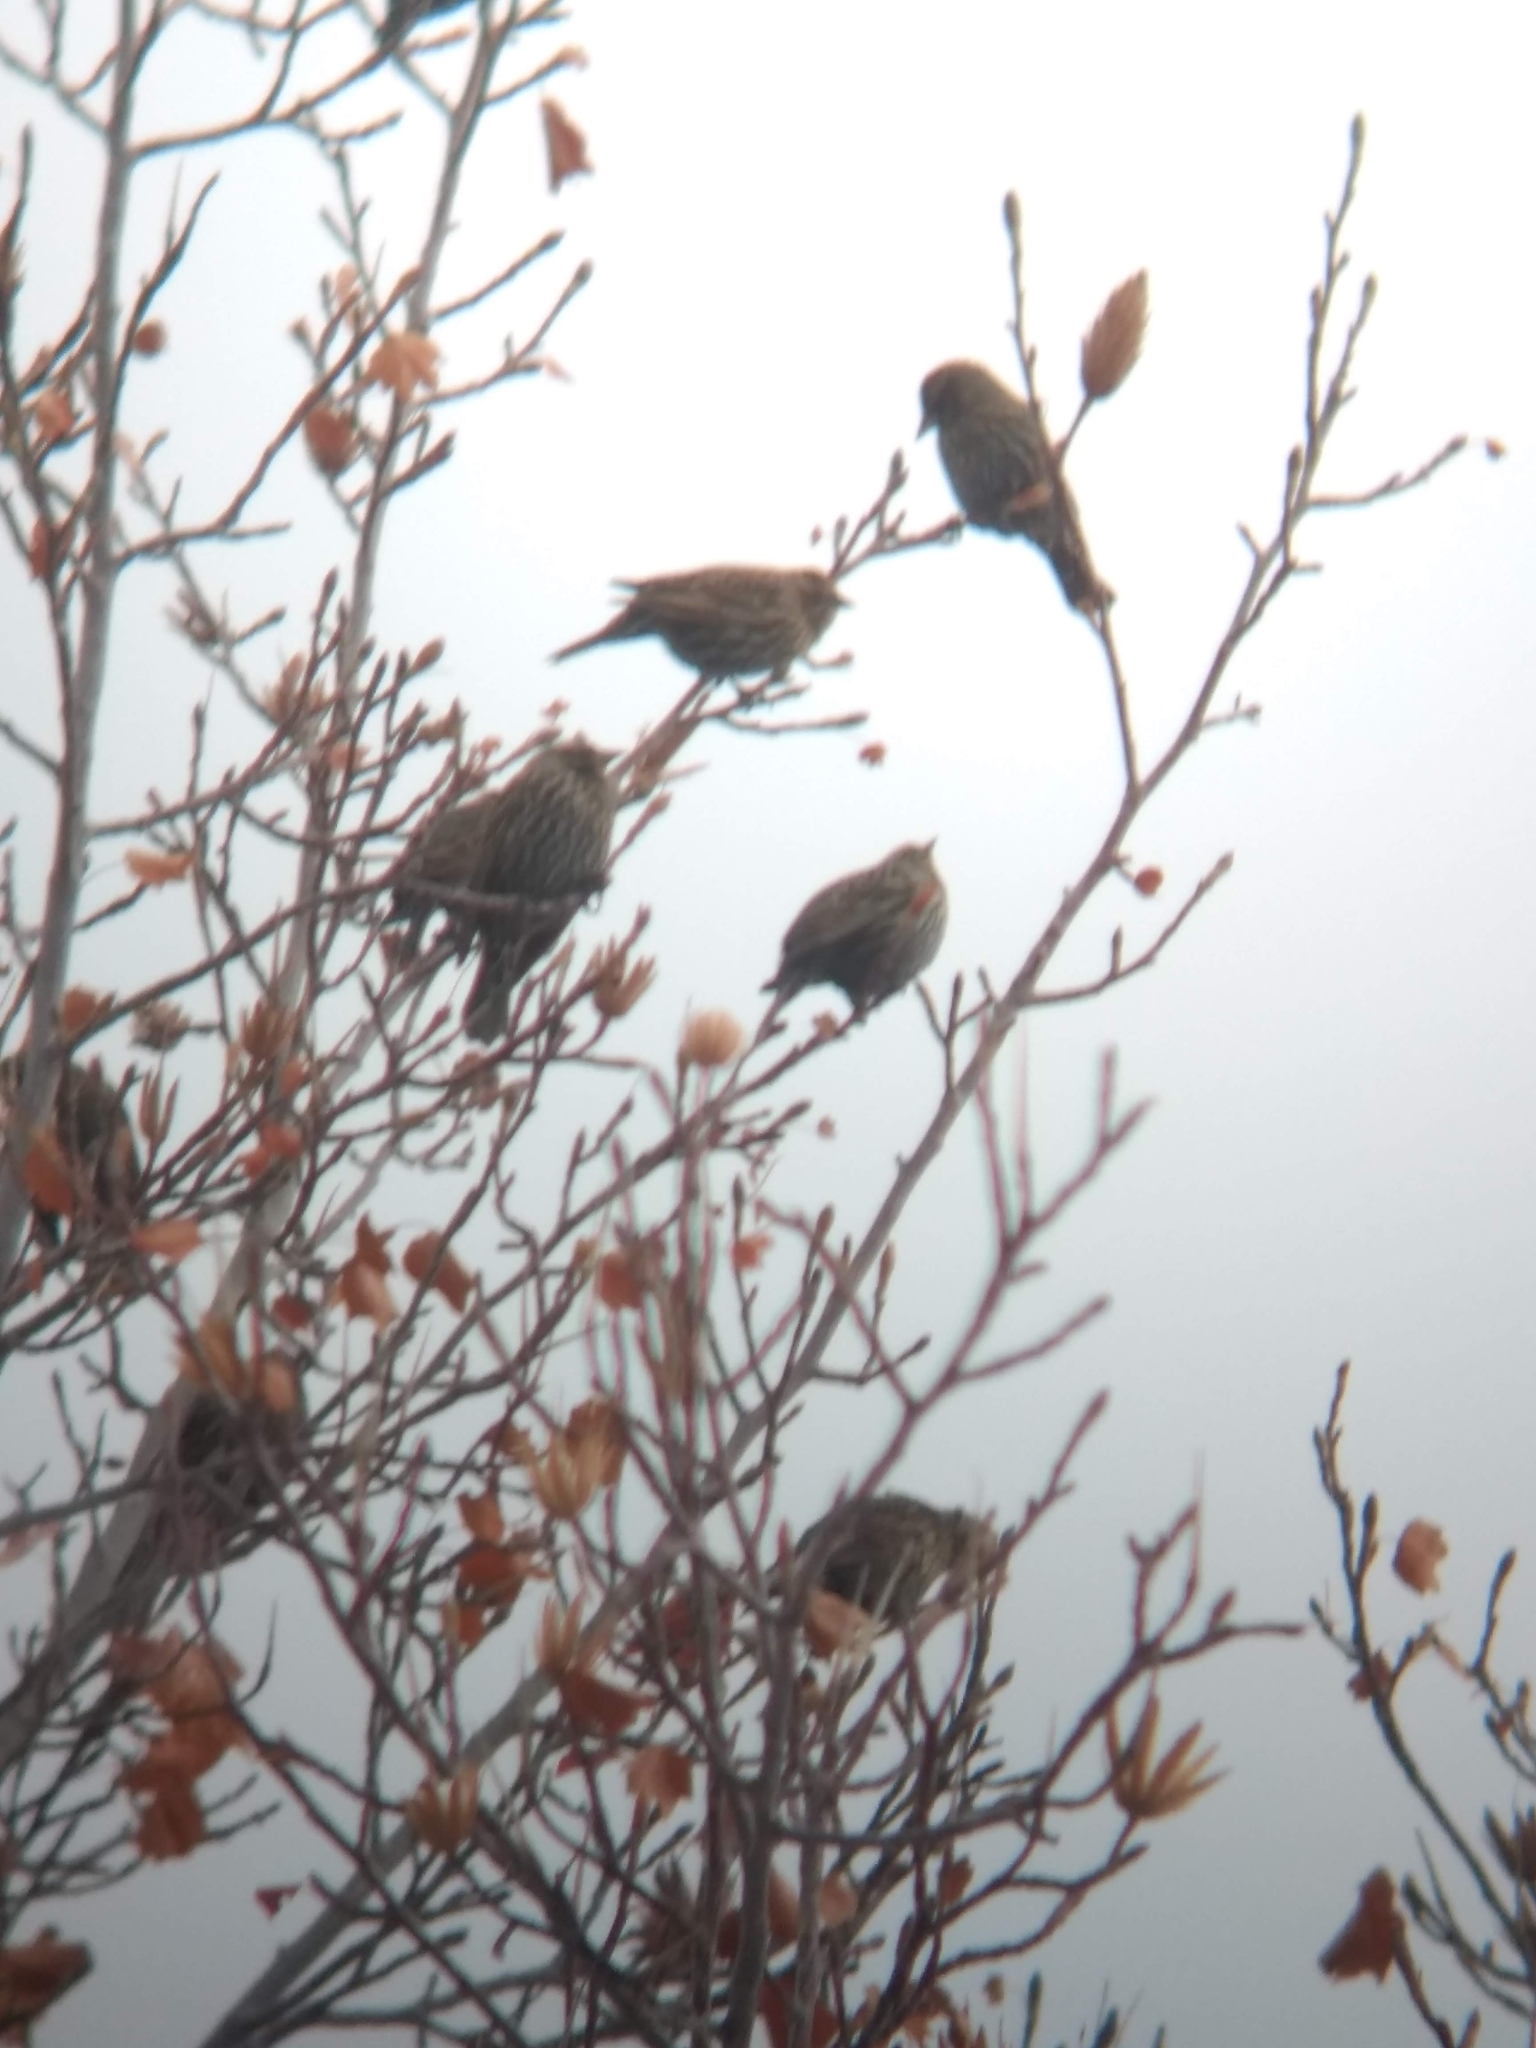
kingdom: Animalia
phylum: Chordata
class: Aves
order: Passeriformes
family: Icteridae
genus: Agelaius
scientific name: Agelaius phoeniceus
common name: Red-winged blackbird
